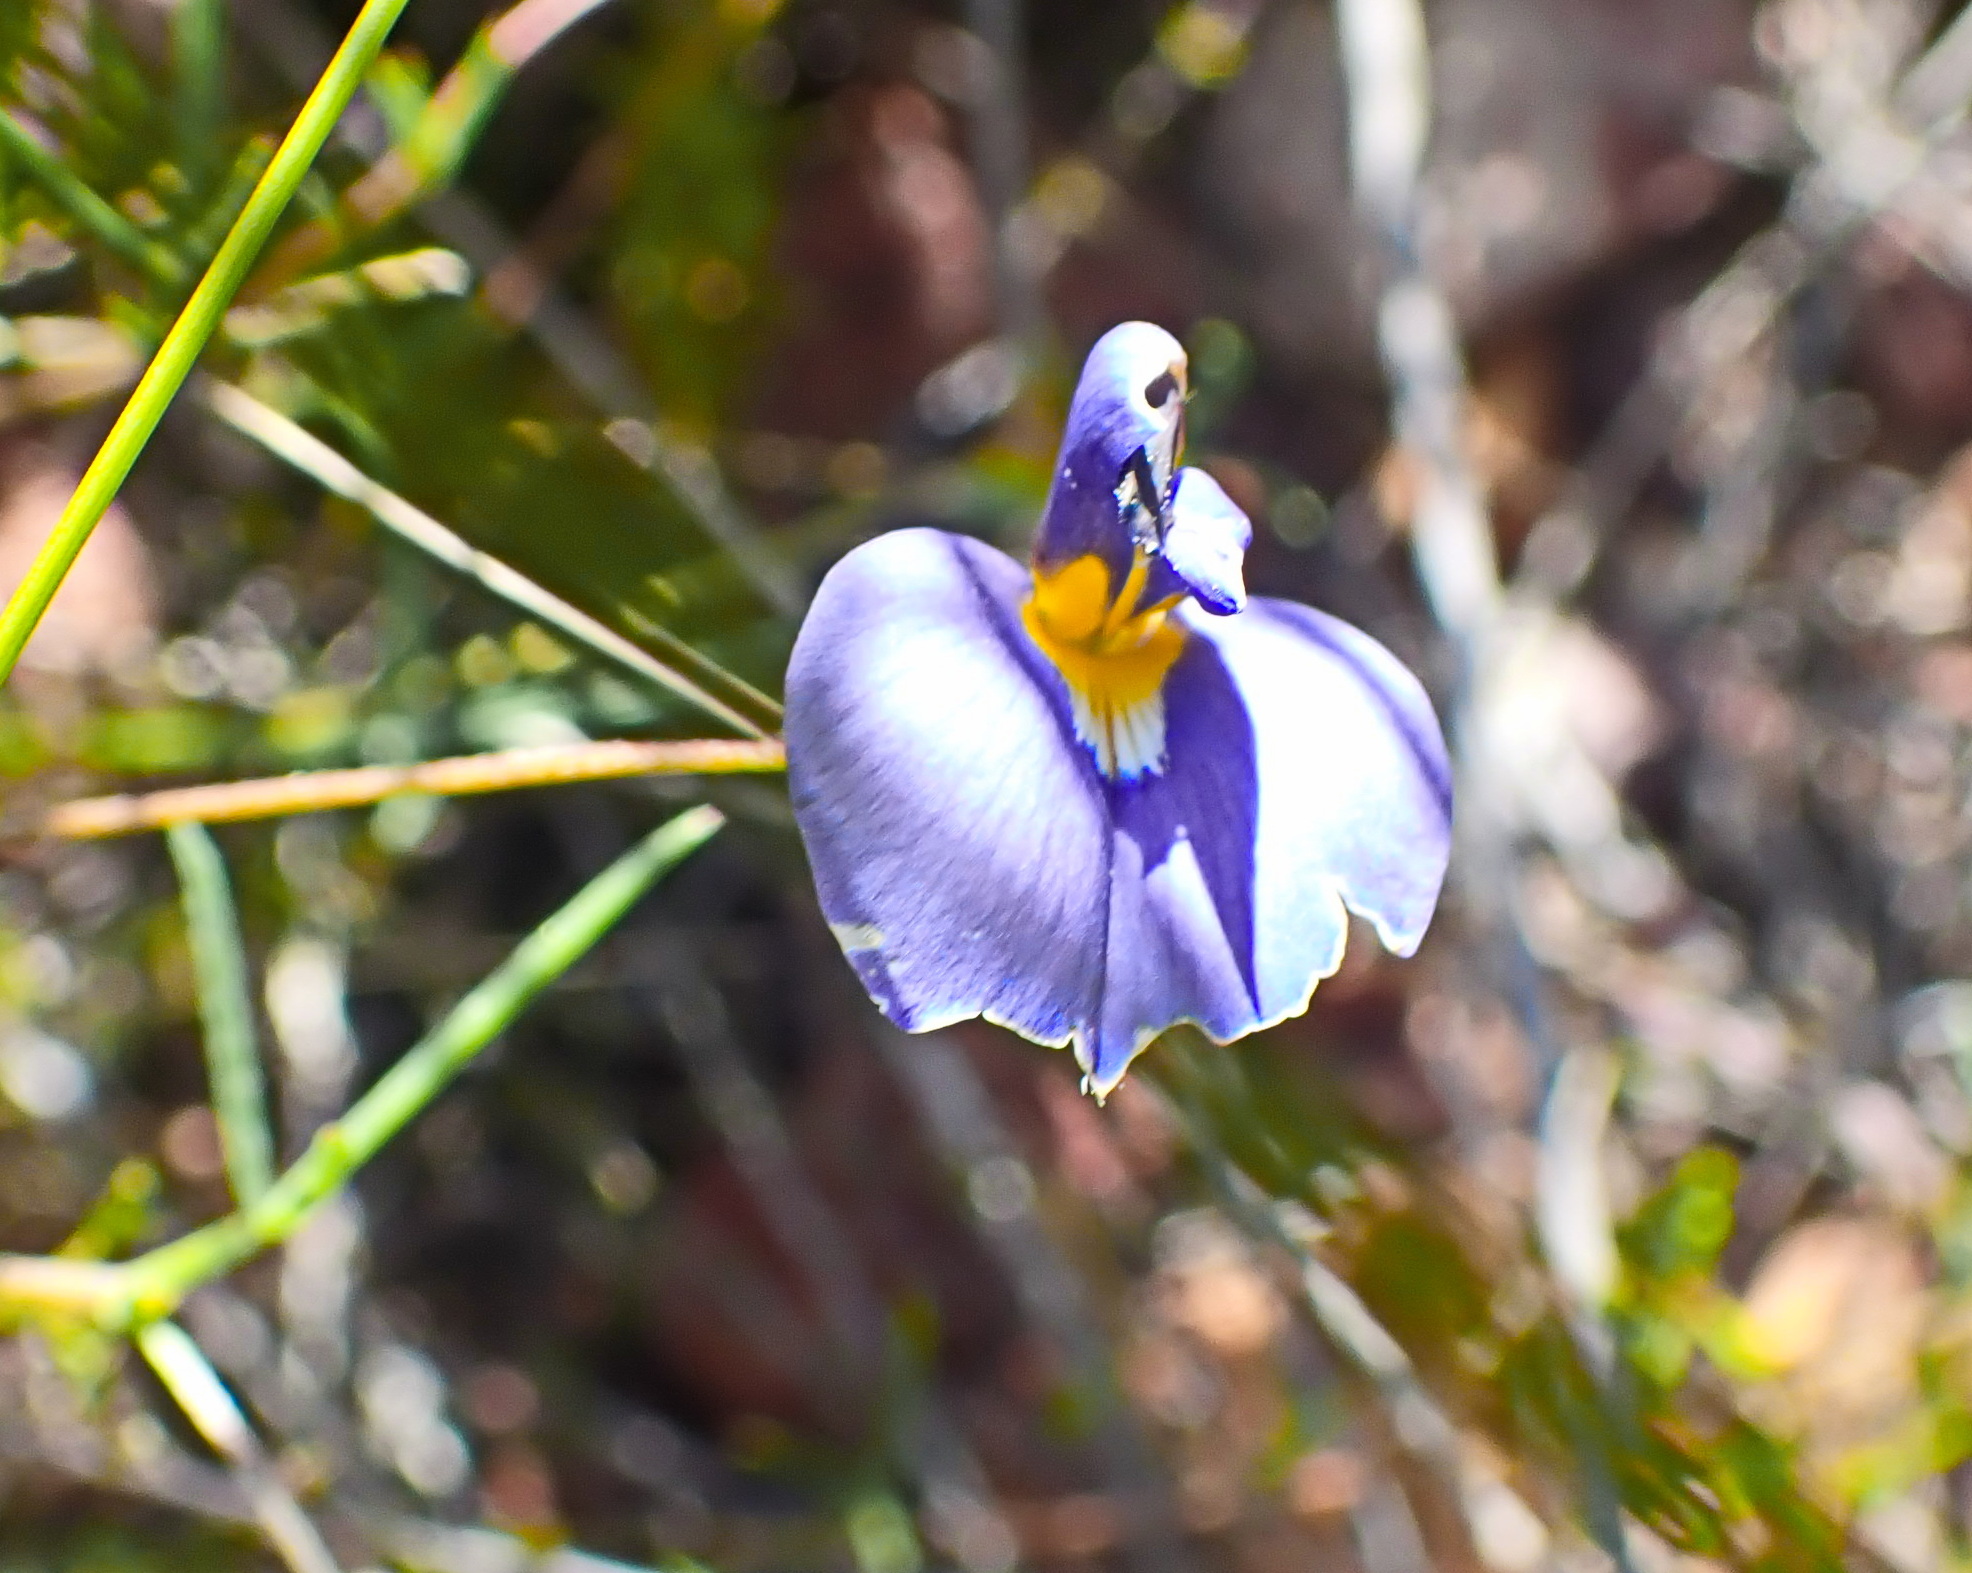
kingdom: Plantae
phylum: Tracheophyta
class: Magnoliopsida
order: Fabales
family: Fabaceae
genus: Lotononis
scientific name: Lotononis filiformis
